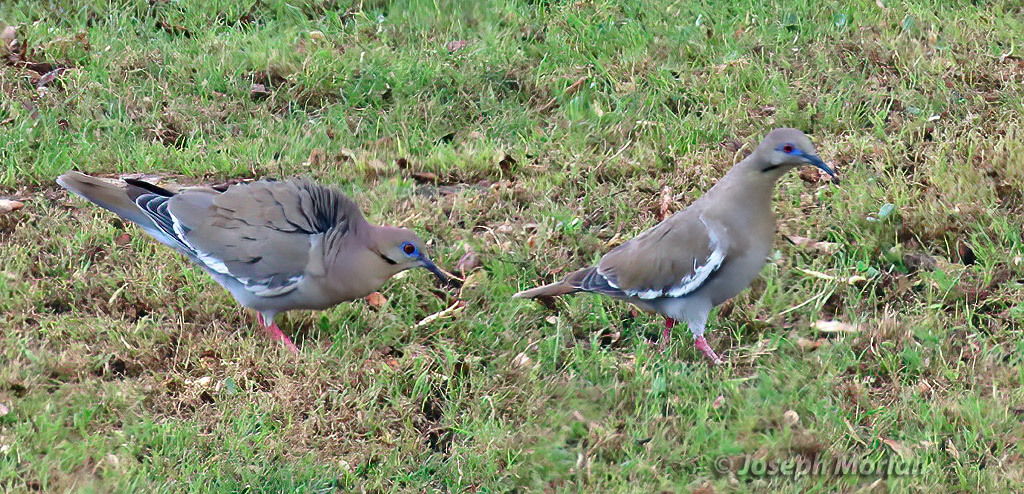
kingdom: Animalia
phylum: Chordata
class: Aves
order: Columbiformes
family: Columbidae
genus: Zenaida
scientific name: Zenaida asiatica
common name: White-winged dove
